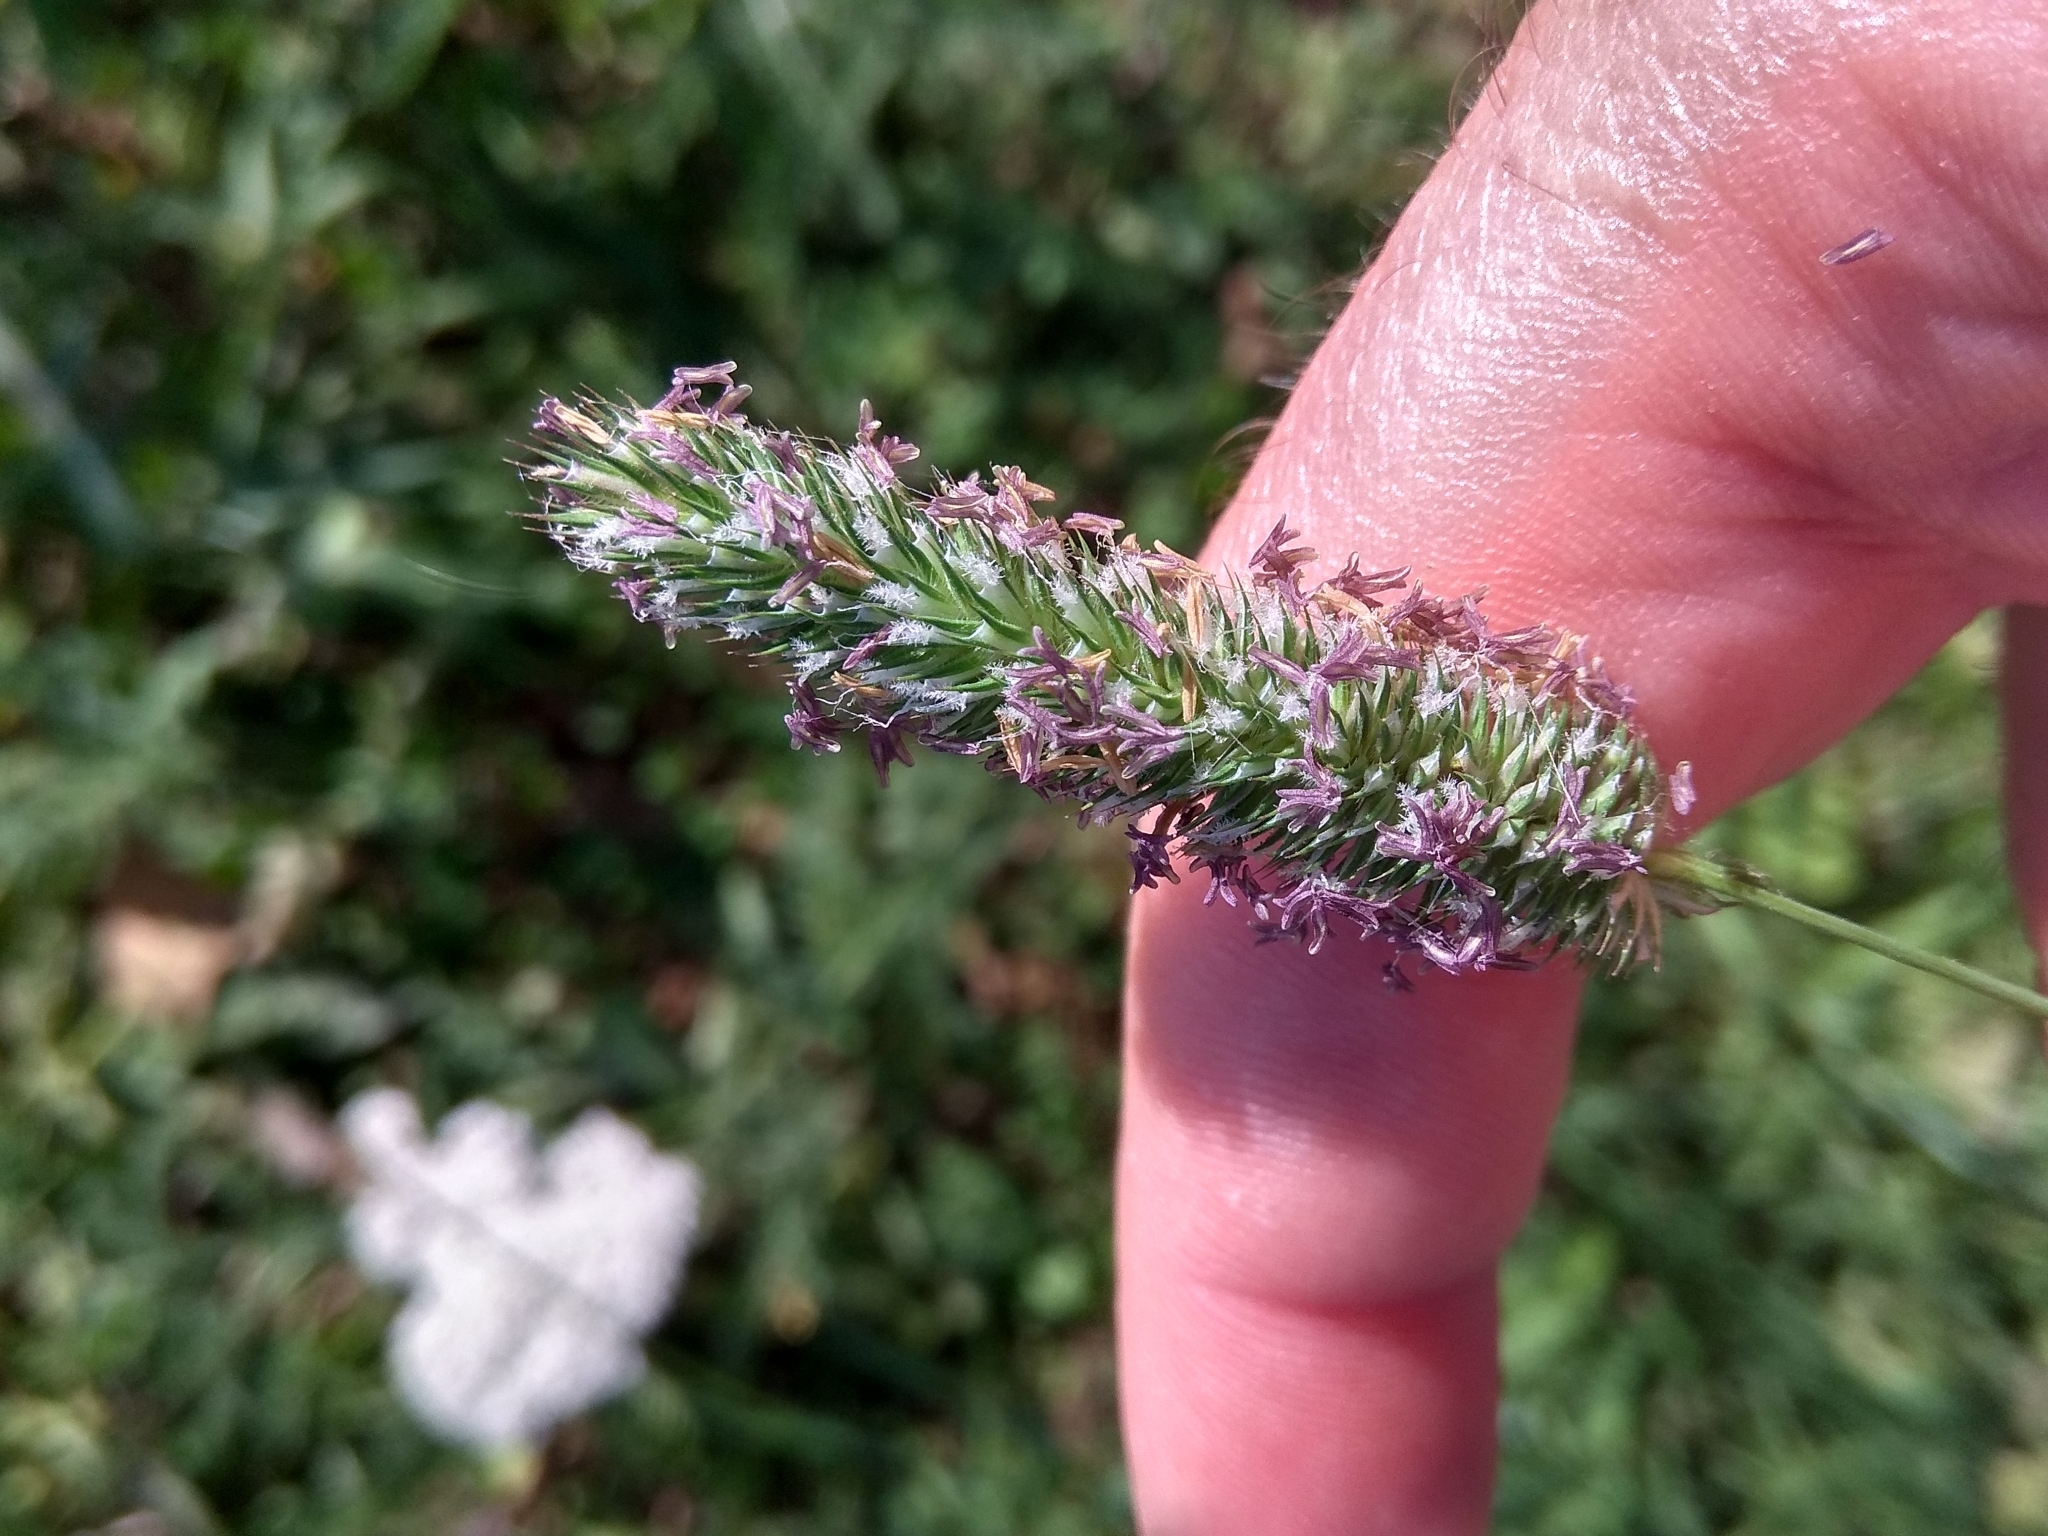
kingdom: Plantae
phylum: Tracheophyta
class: Liliopsida
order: Poales
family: Poaceae
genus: Phleum
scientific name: Phleum pratense
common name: Timothy grass
